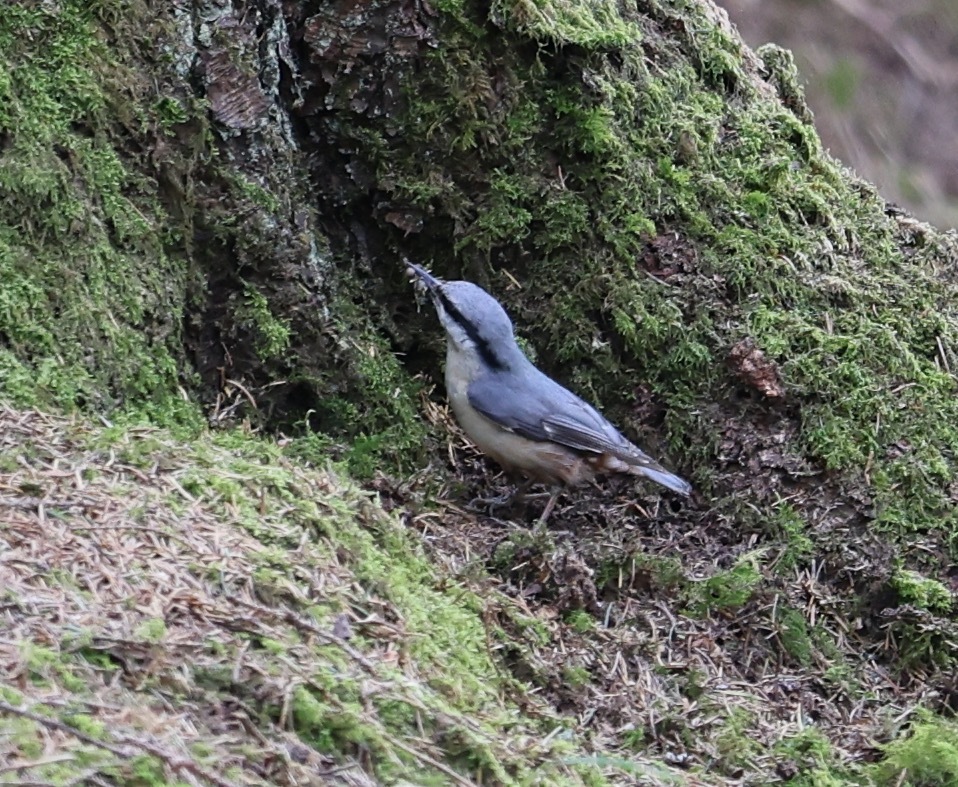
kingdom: Animalia
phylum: Chordata
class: Aves
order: Passeriformes
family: Sittidae
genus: Sitta
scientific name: Sitta europaea
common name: Eurasian nuthatch
